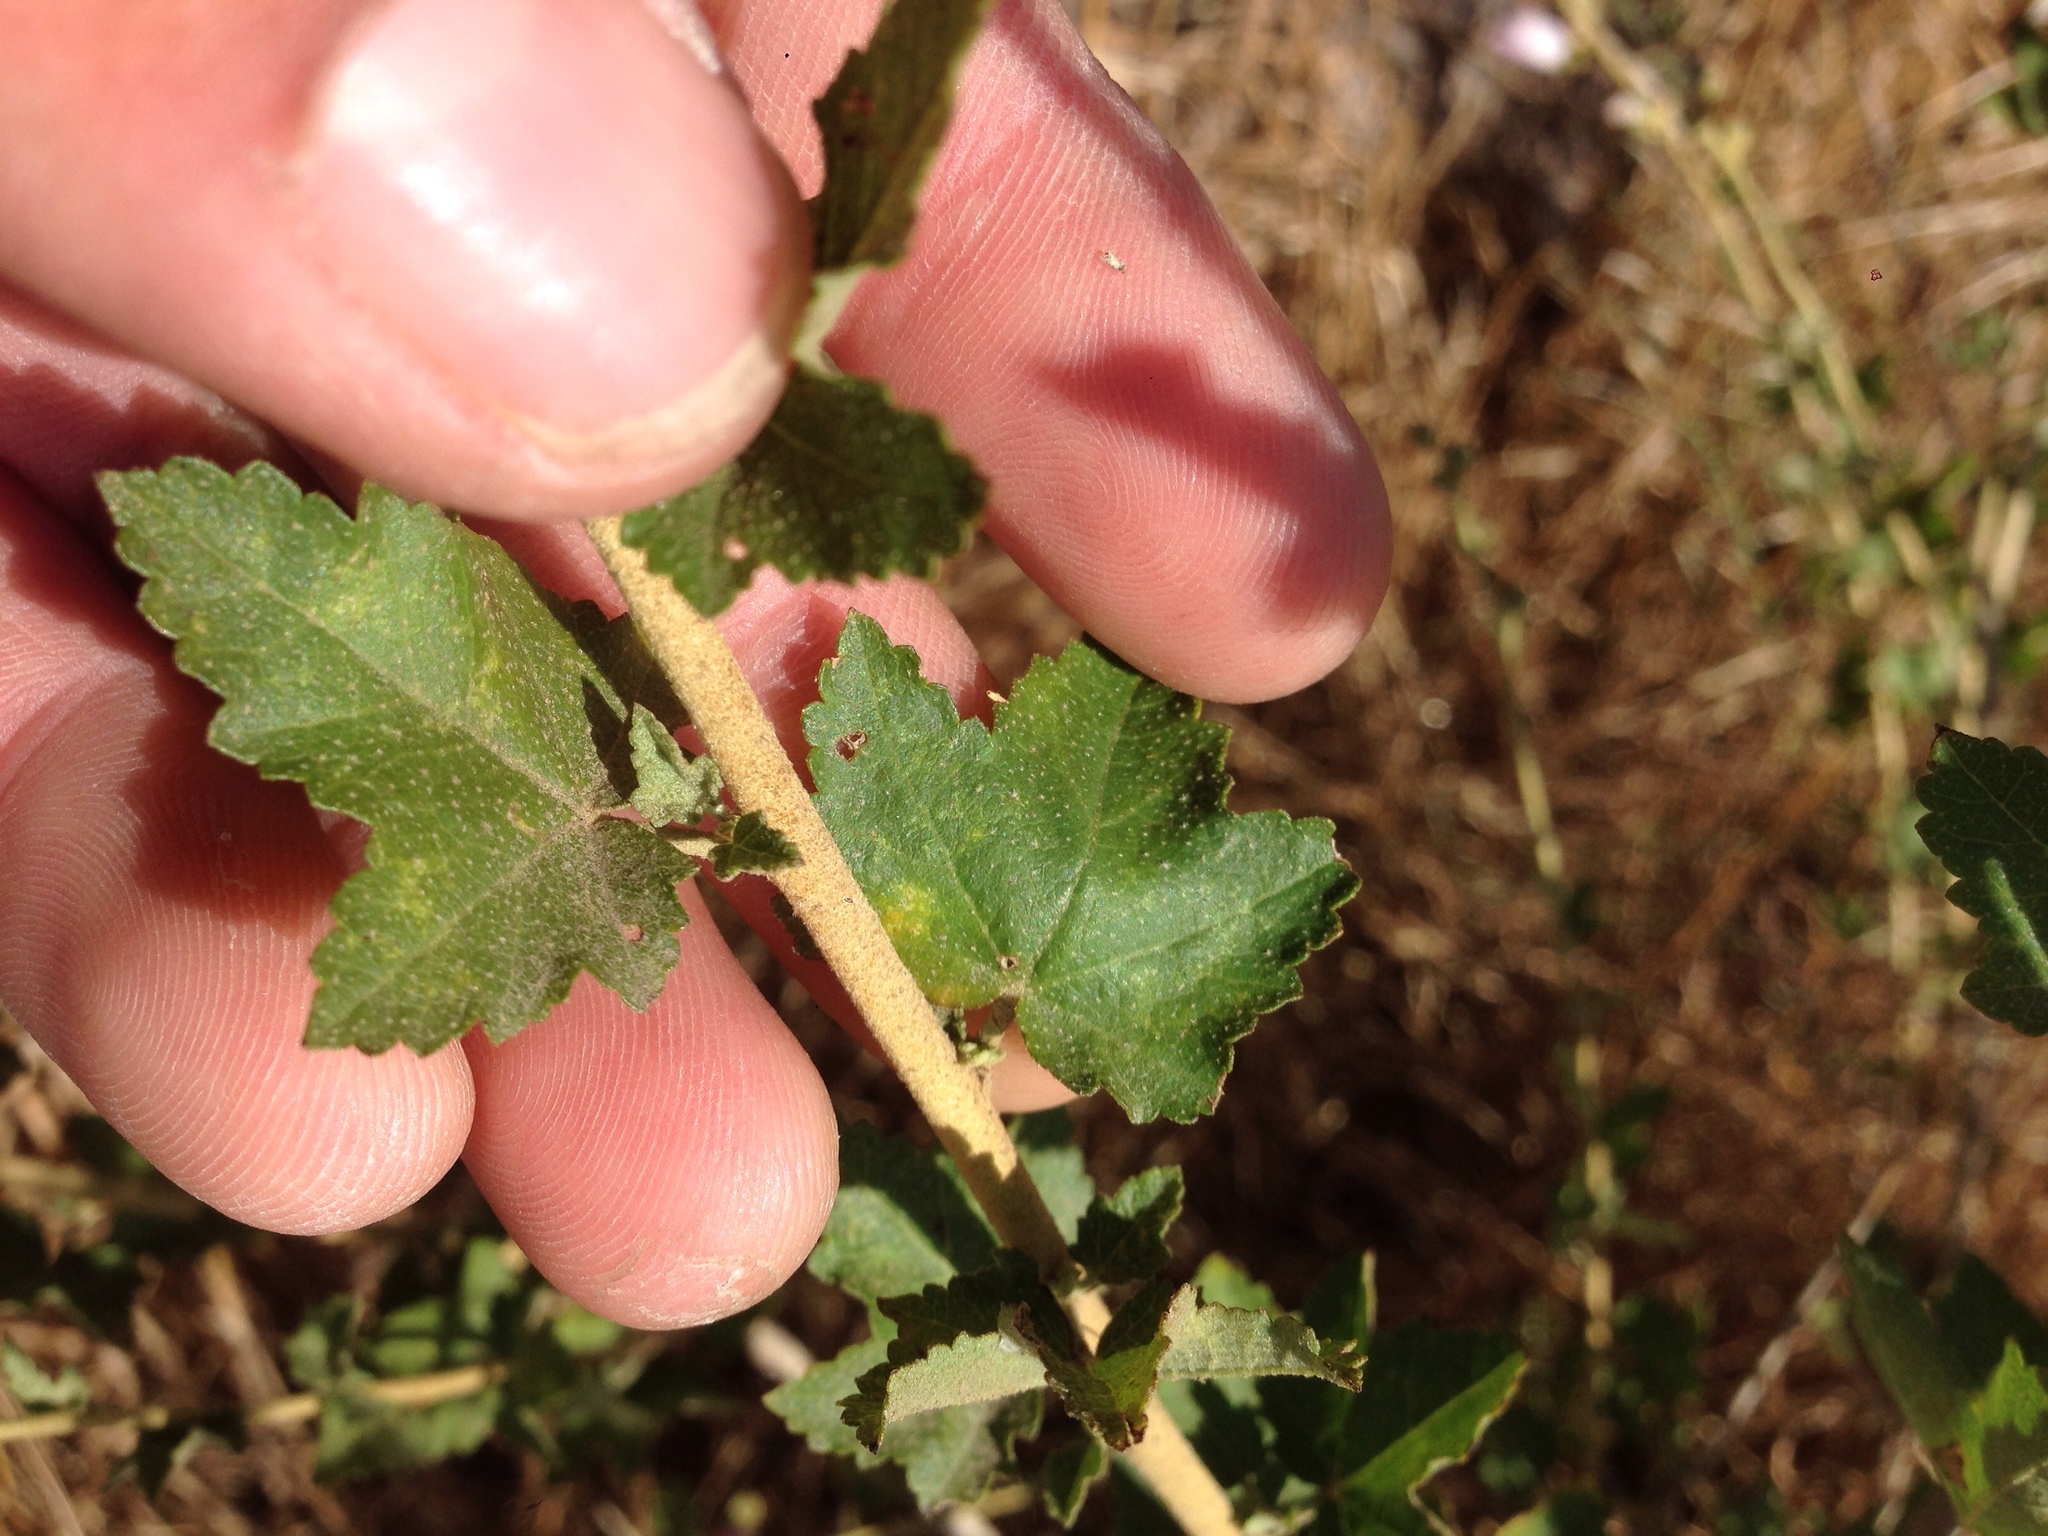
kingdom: Plantae
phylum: Tracheophyta
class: Magnoliopsida
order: Malvales
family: Malvaceae
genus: Malacothamnus
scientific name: Malacothamnus fasciculatus
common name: Sant cruz island bush-mallow
